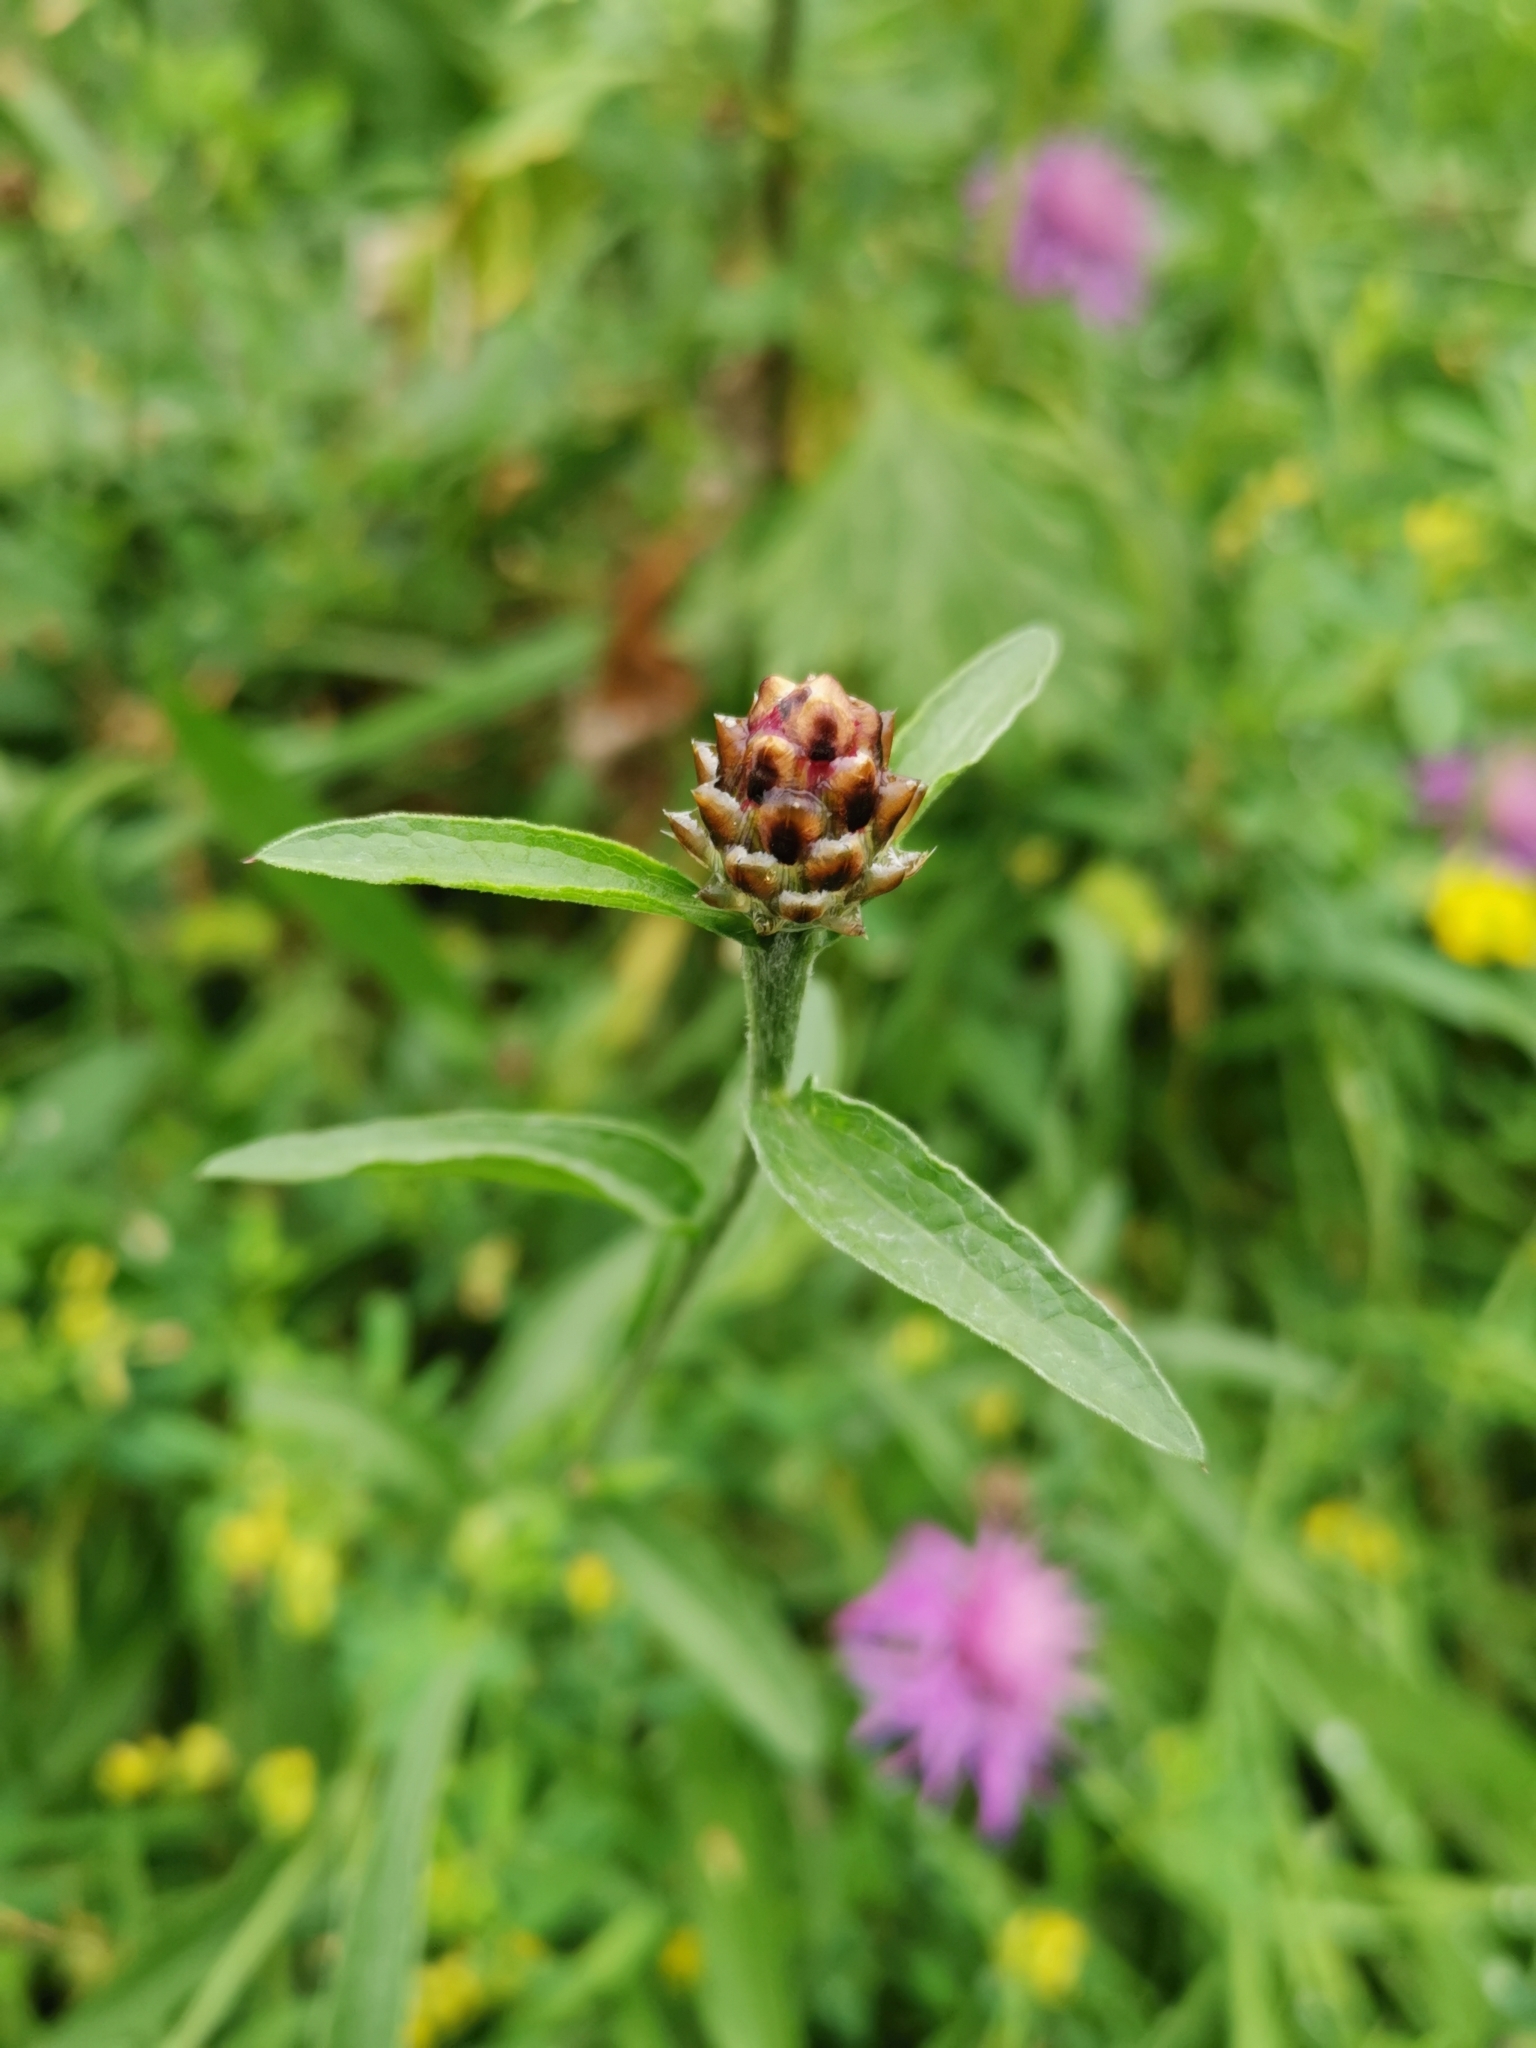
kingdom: Plantae
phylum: Tracheophyta
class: Magnoliopsida
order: Asterales
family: Asteraceae
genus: Centaurea
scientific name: Centaurea jacea
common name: Brown knapweed
